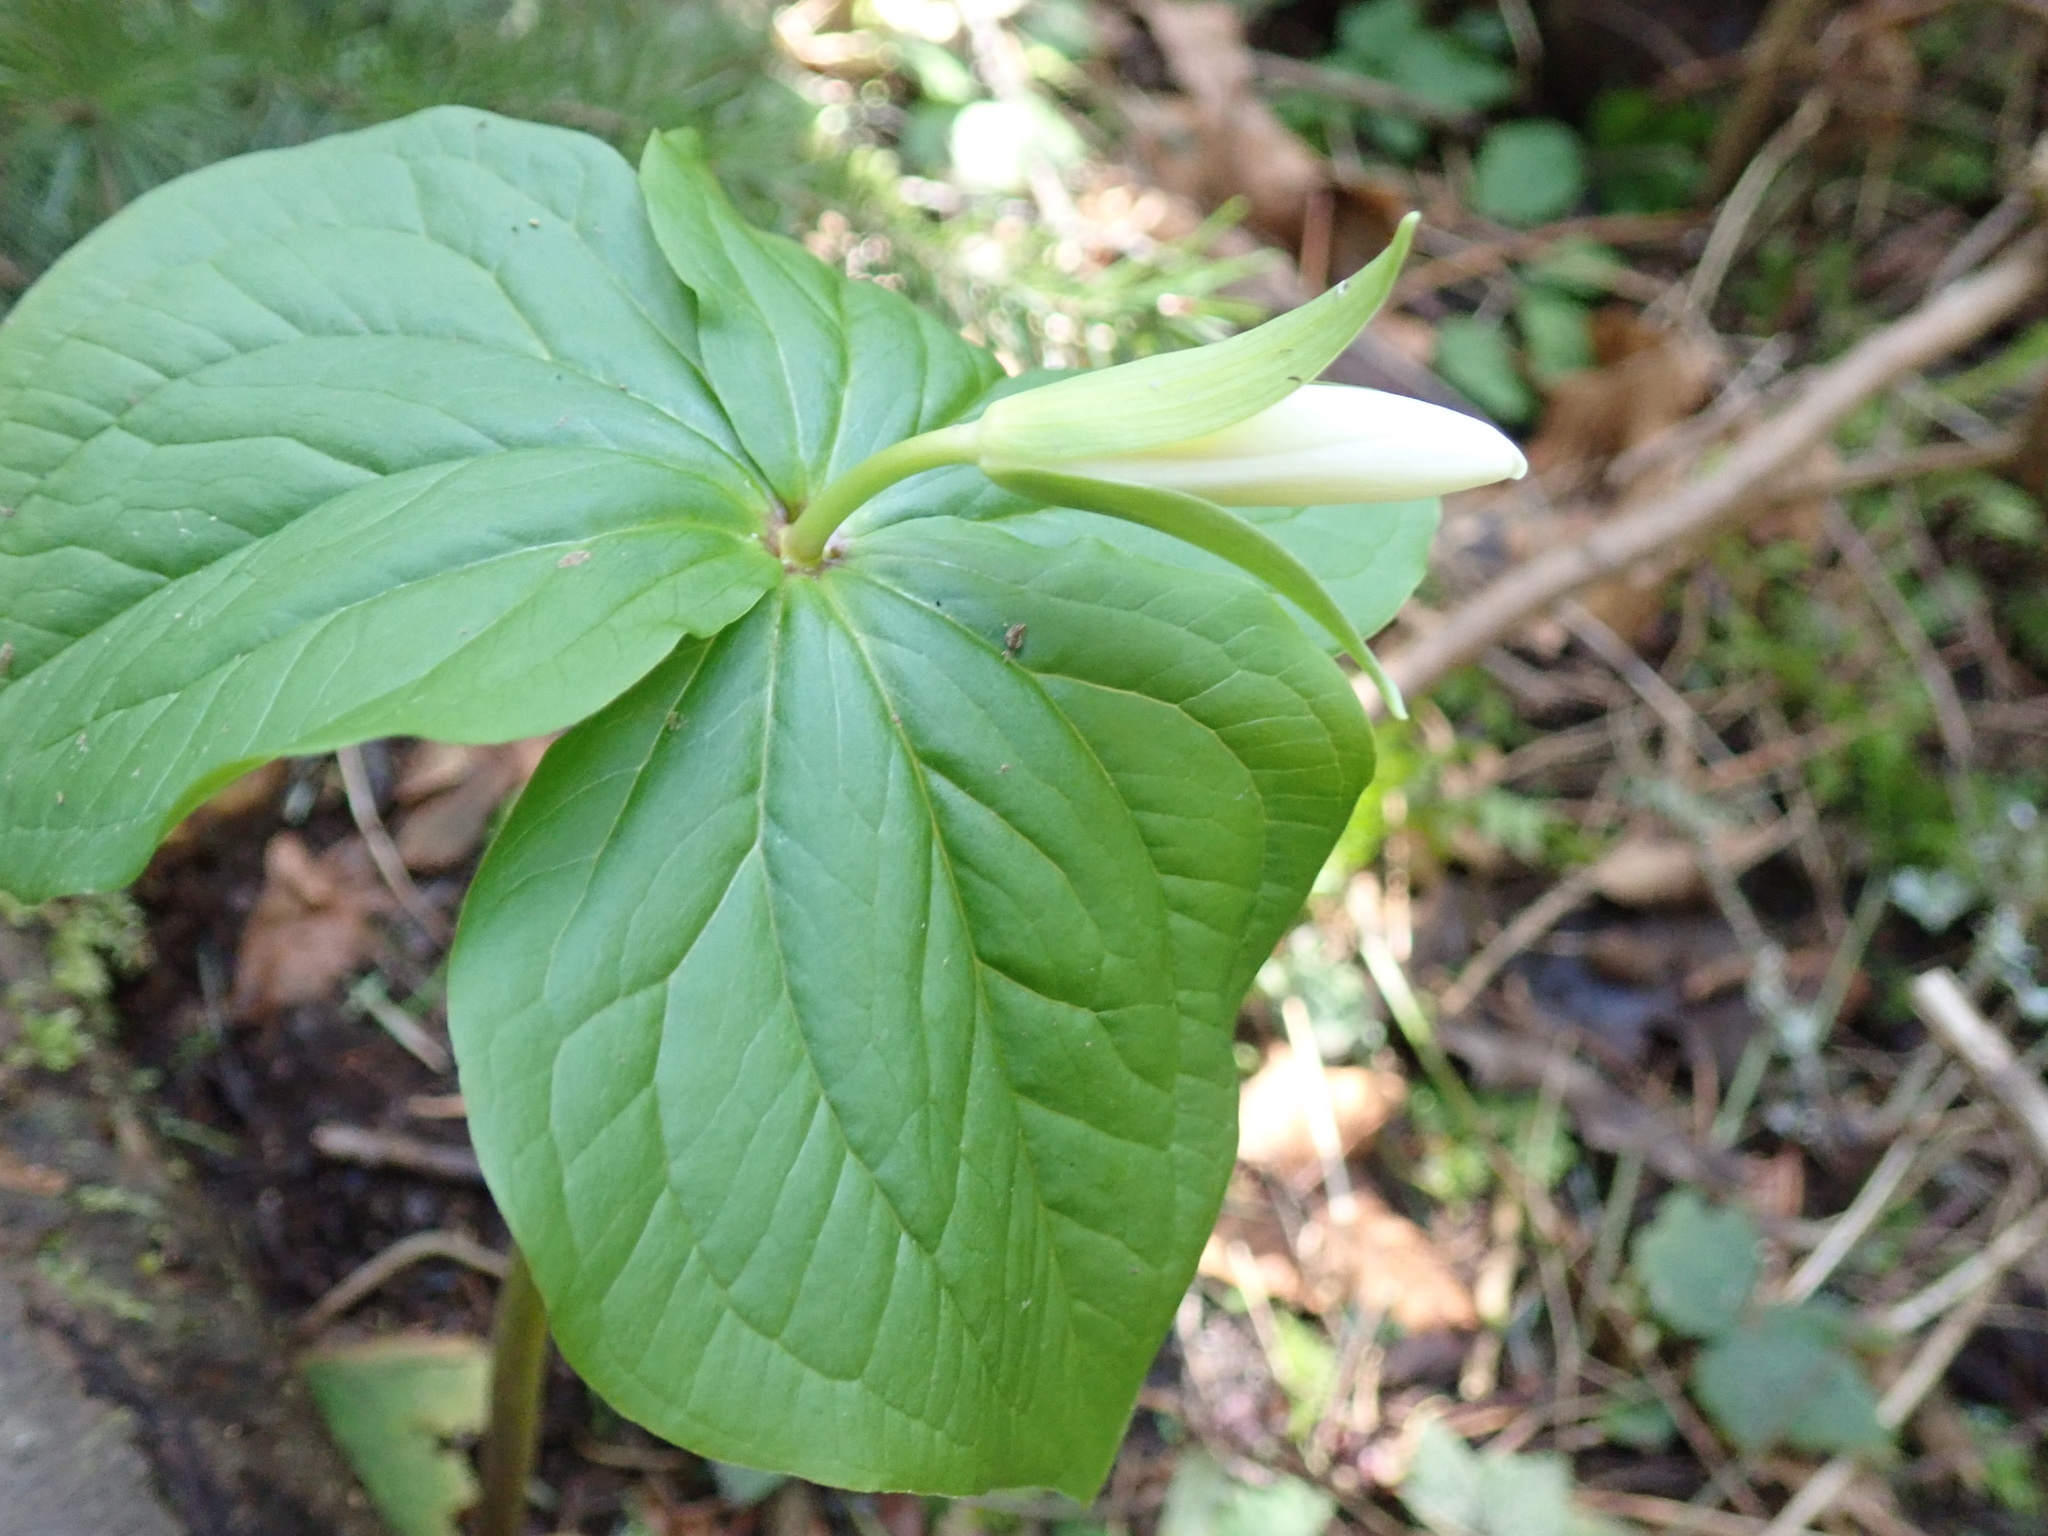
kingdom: Plantae
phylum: Tracheophyta
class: Liliopsida
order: Liliales
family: Melanthiaceae
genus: Trillium
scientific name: Trillium ovatum
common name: Pacific trillium
